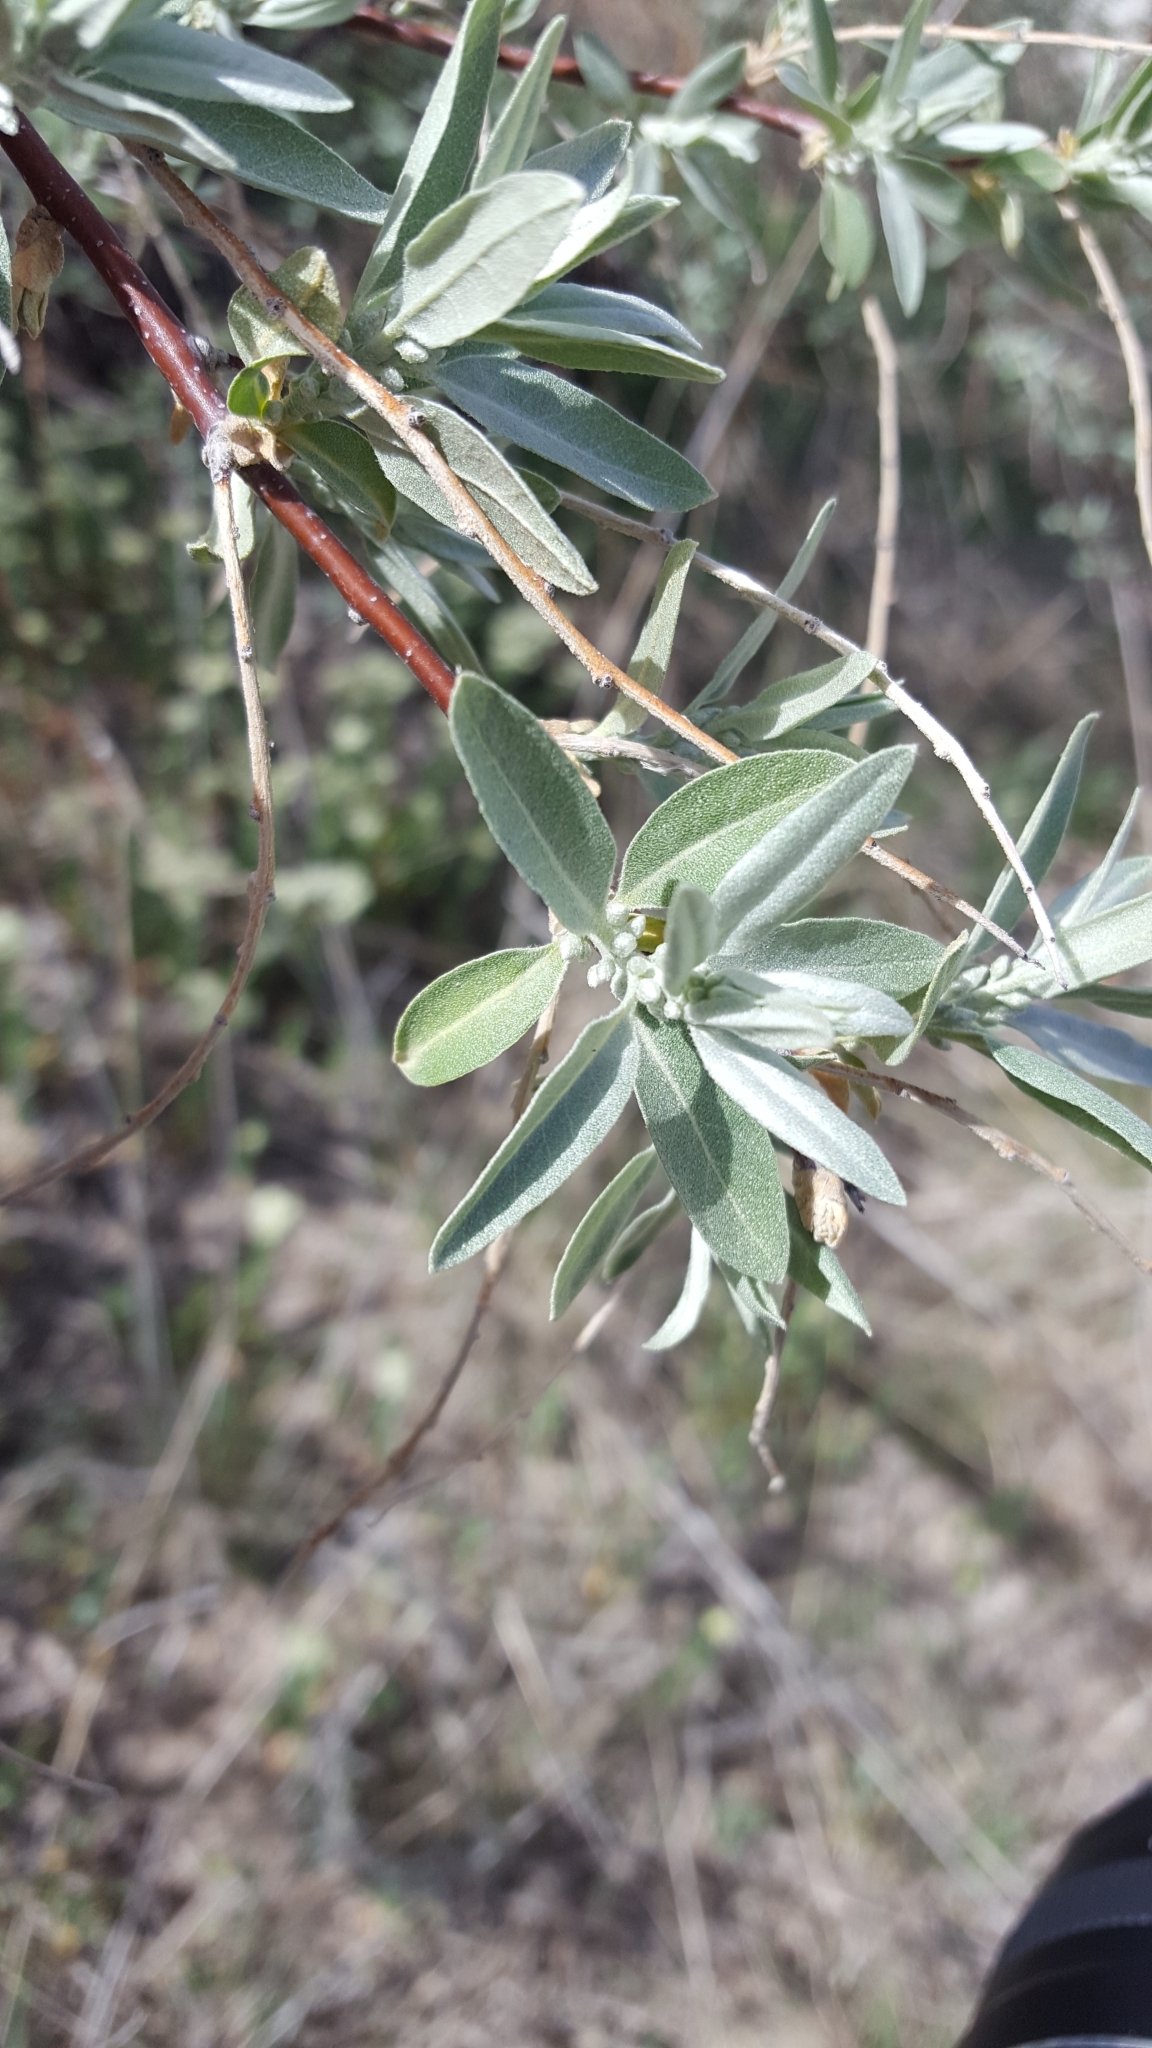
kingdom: Plantae
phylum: Tracheophyta
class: Magnoliopsida
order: Rosales
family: Elaeagnaceae
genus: Elaeagnus
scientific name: Elaeagnus angustifolia
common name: Russian olive
